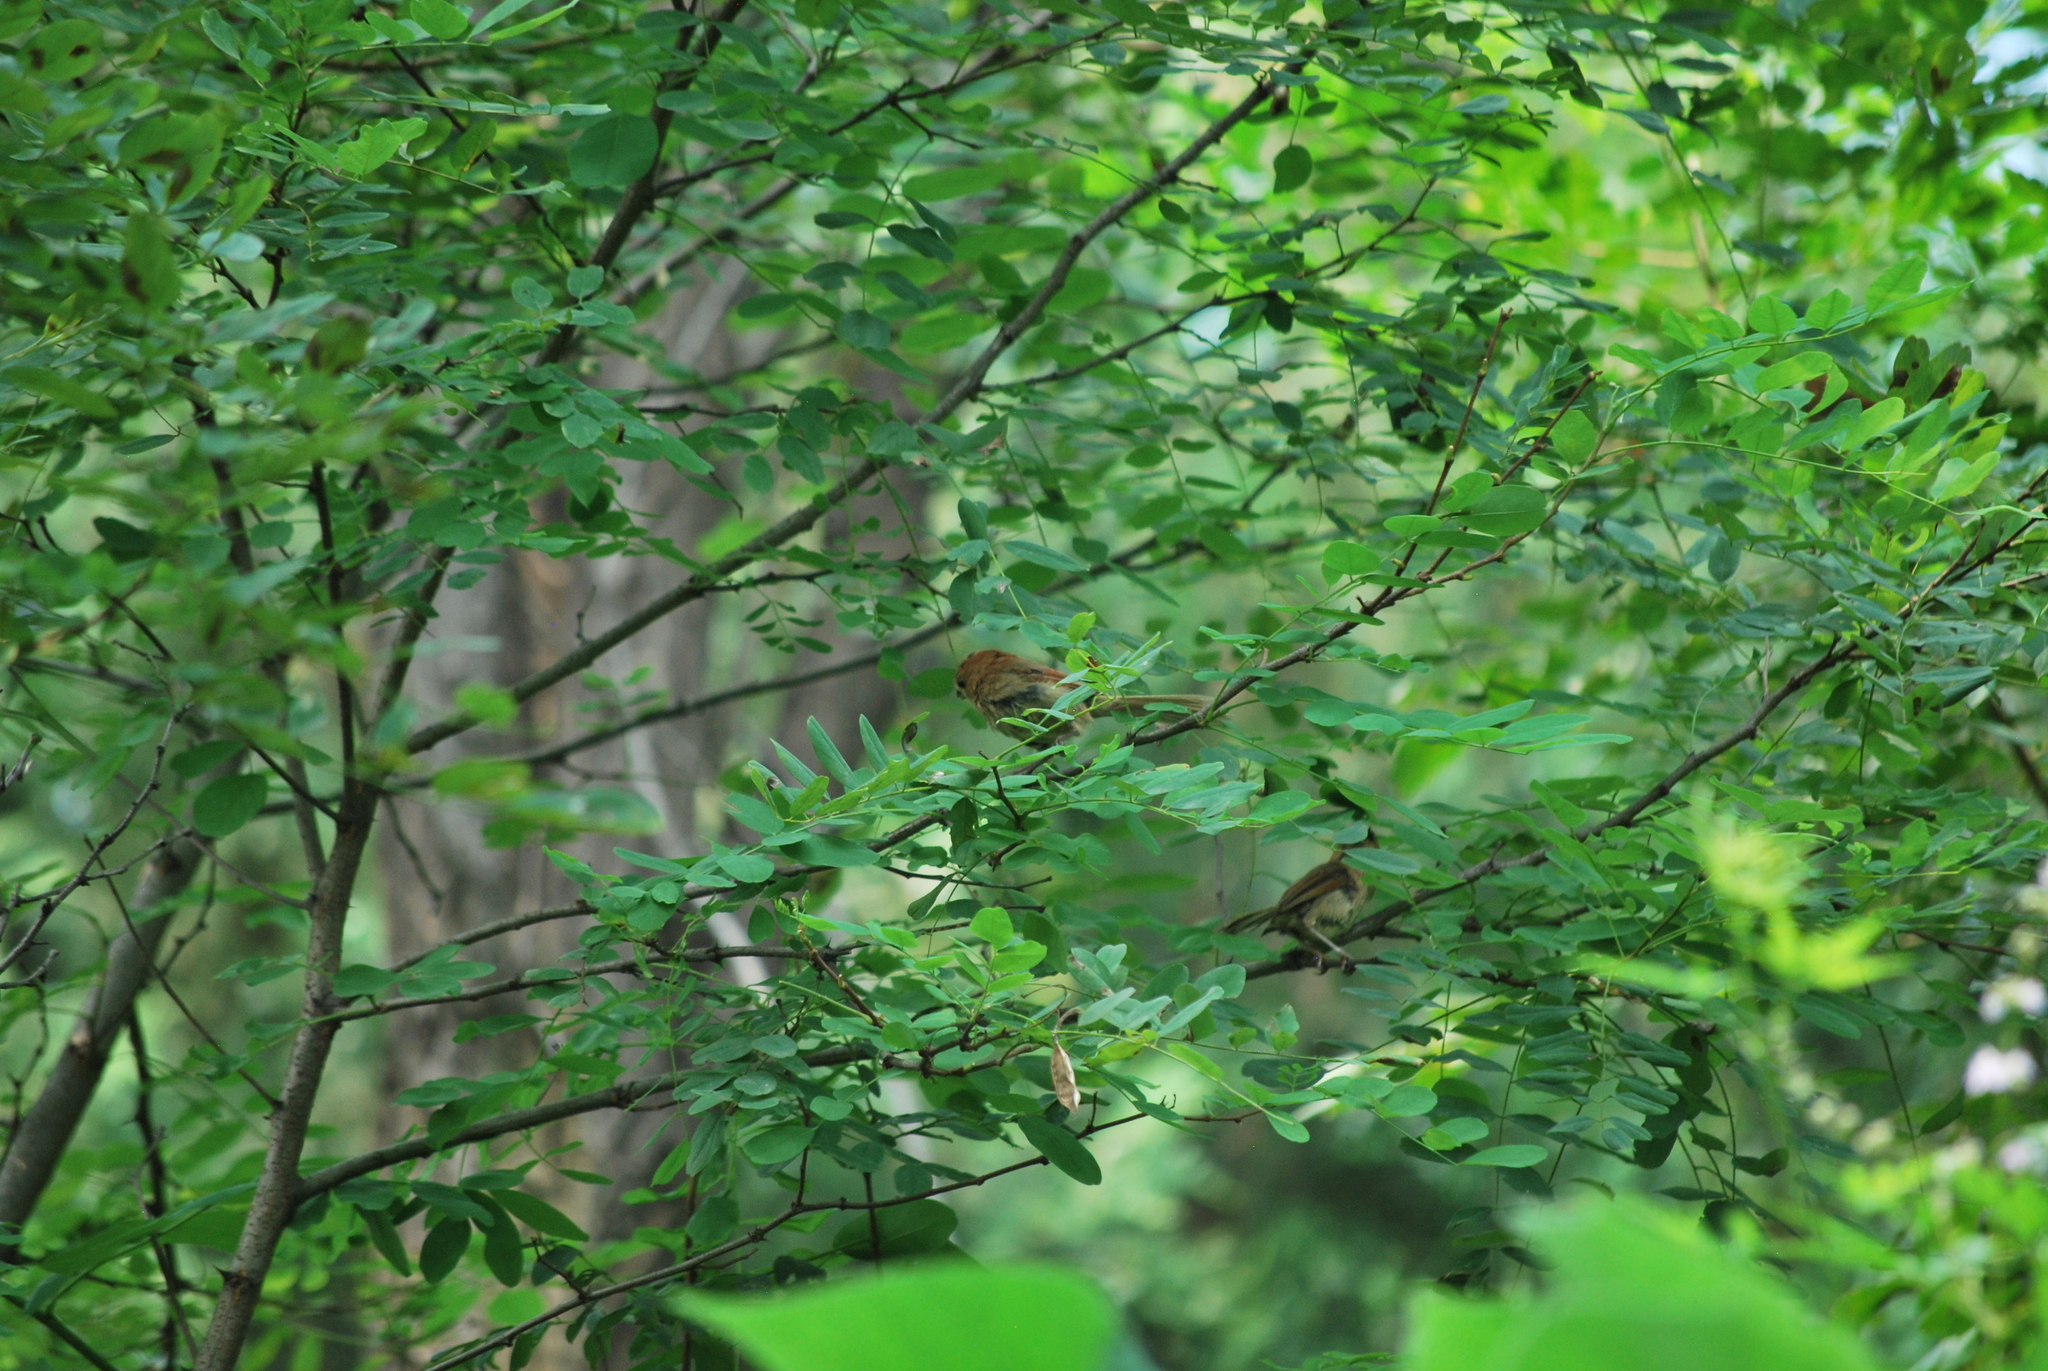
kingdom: Animalia
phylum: Chordata
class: Aves
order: Passeriformes
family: Sylviidae
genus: Sinosuthora
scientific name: Sinosuthora webbiana
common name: Vinous-throated parrotbill
